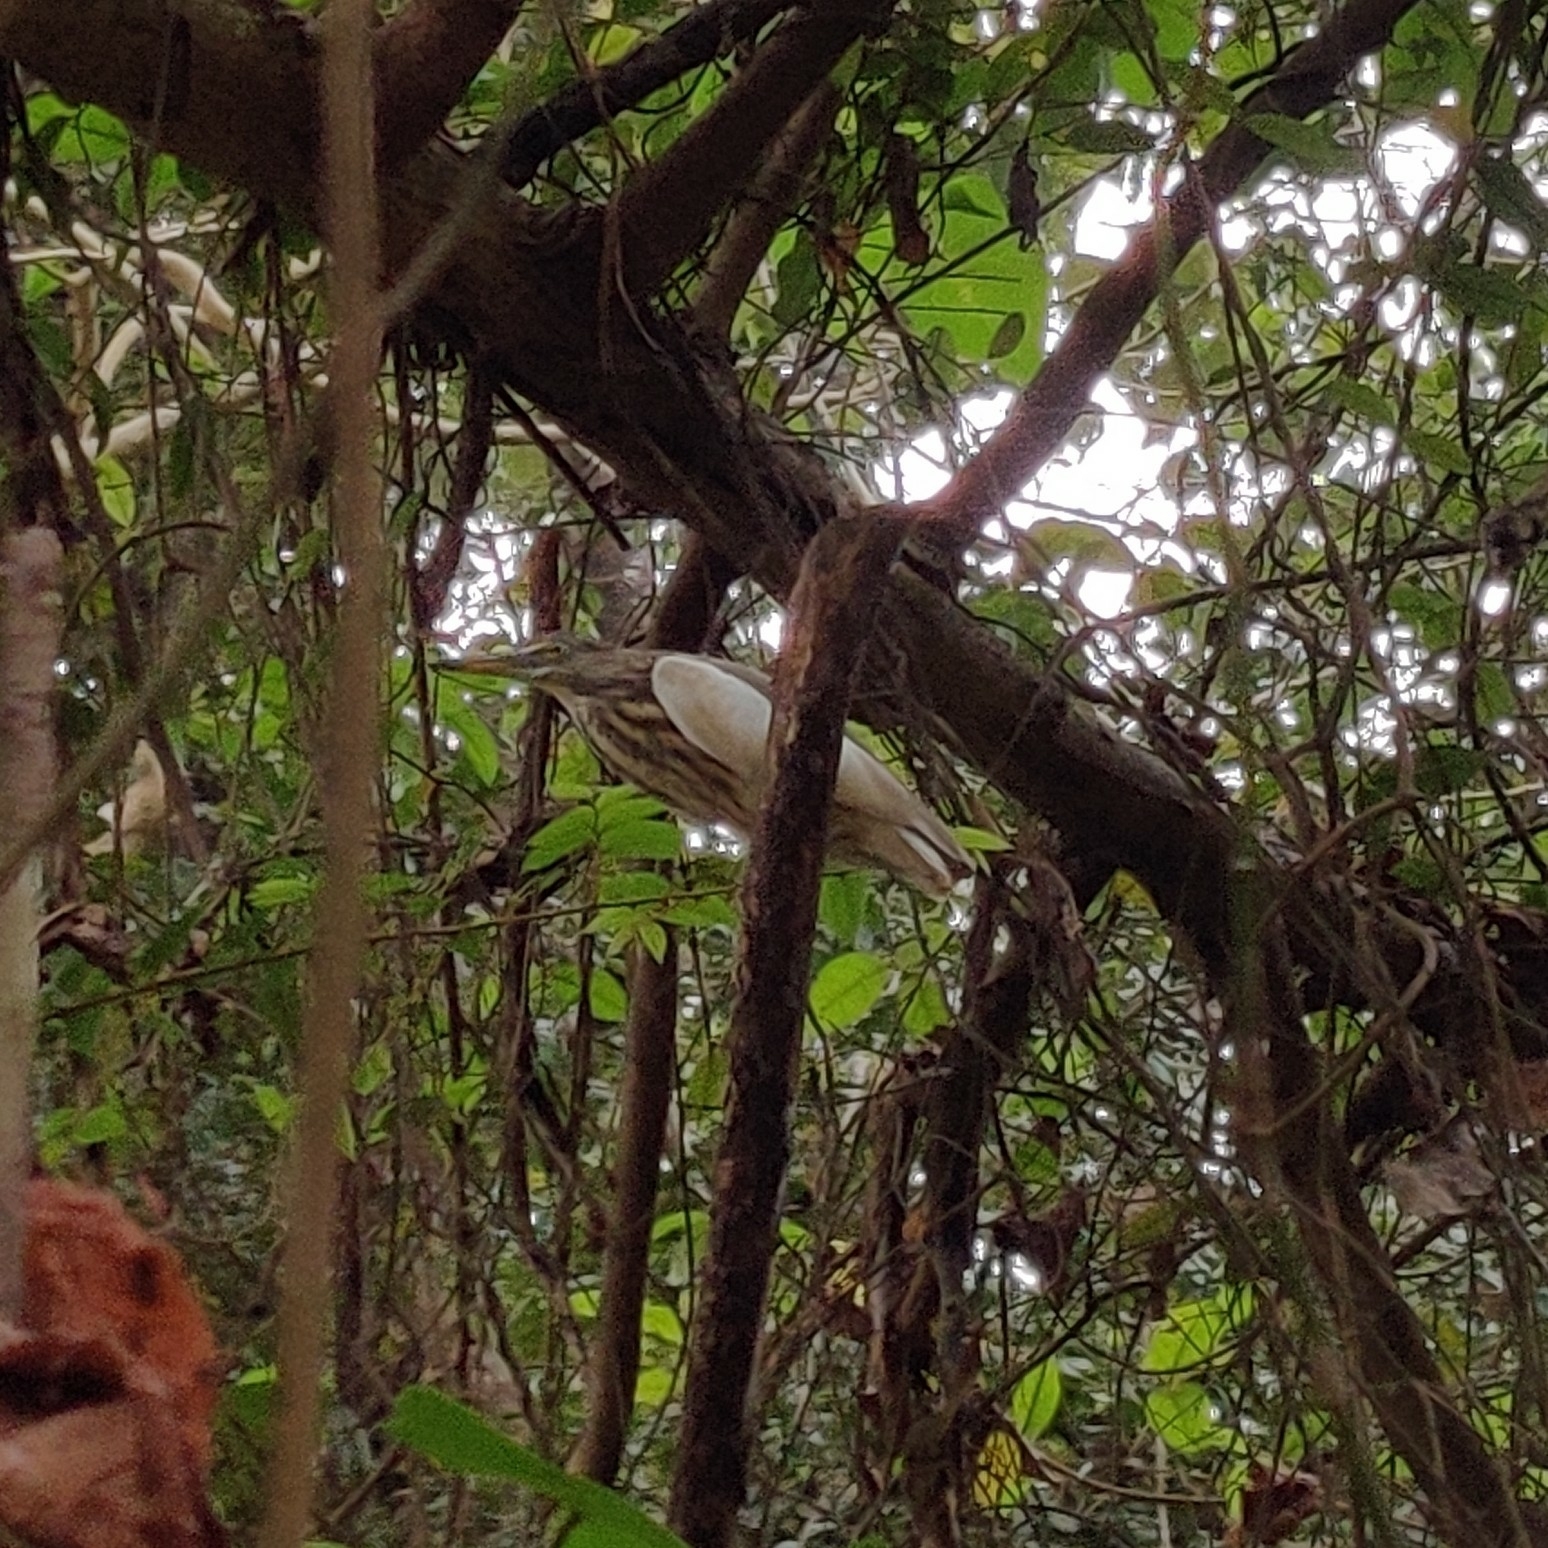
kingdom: Animalia
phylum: Chordata
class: Aves
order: Pelecaniformes
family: Ardeidae
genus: Ardeola
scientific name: Ardeola grayii
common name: Indian pond heron
